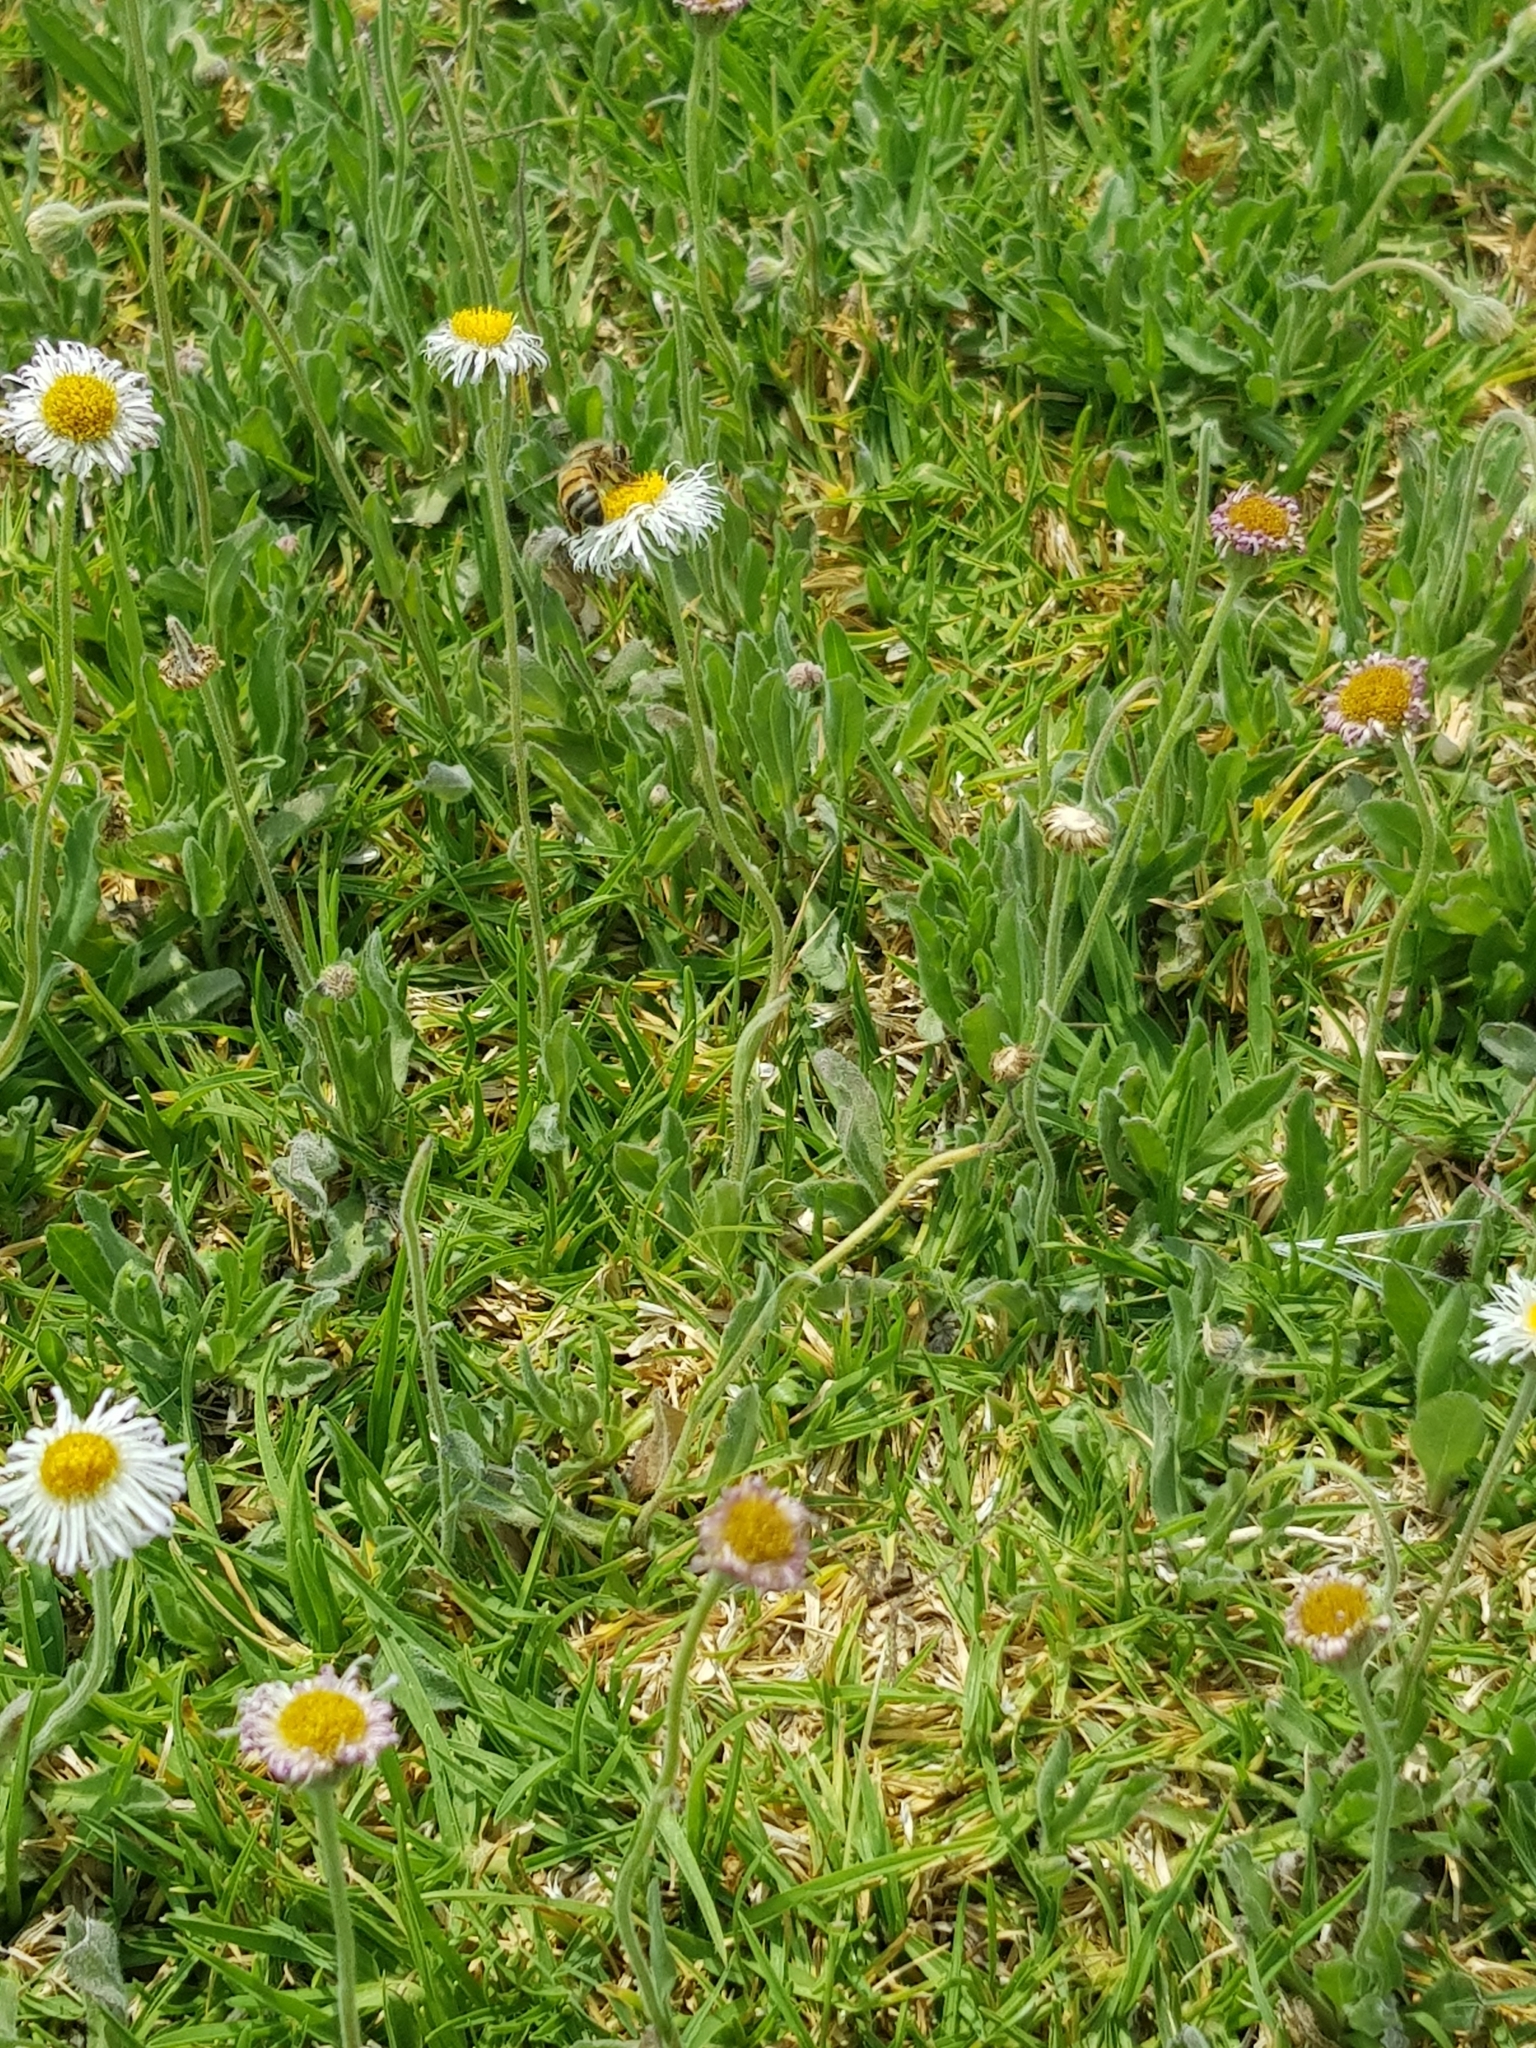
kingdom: Plantae
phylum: Tracheophyta
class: Magnoliopsida
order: Asterales
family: Asteraceae
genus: Erigeron
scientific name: Erigeron longipes
